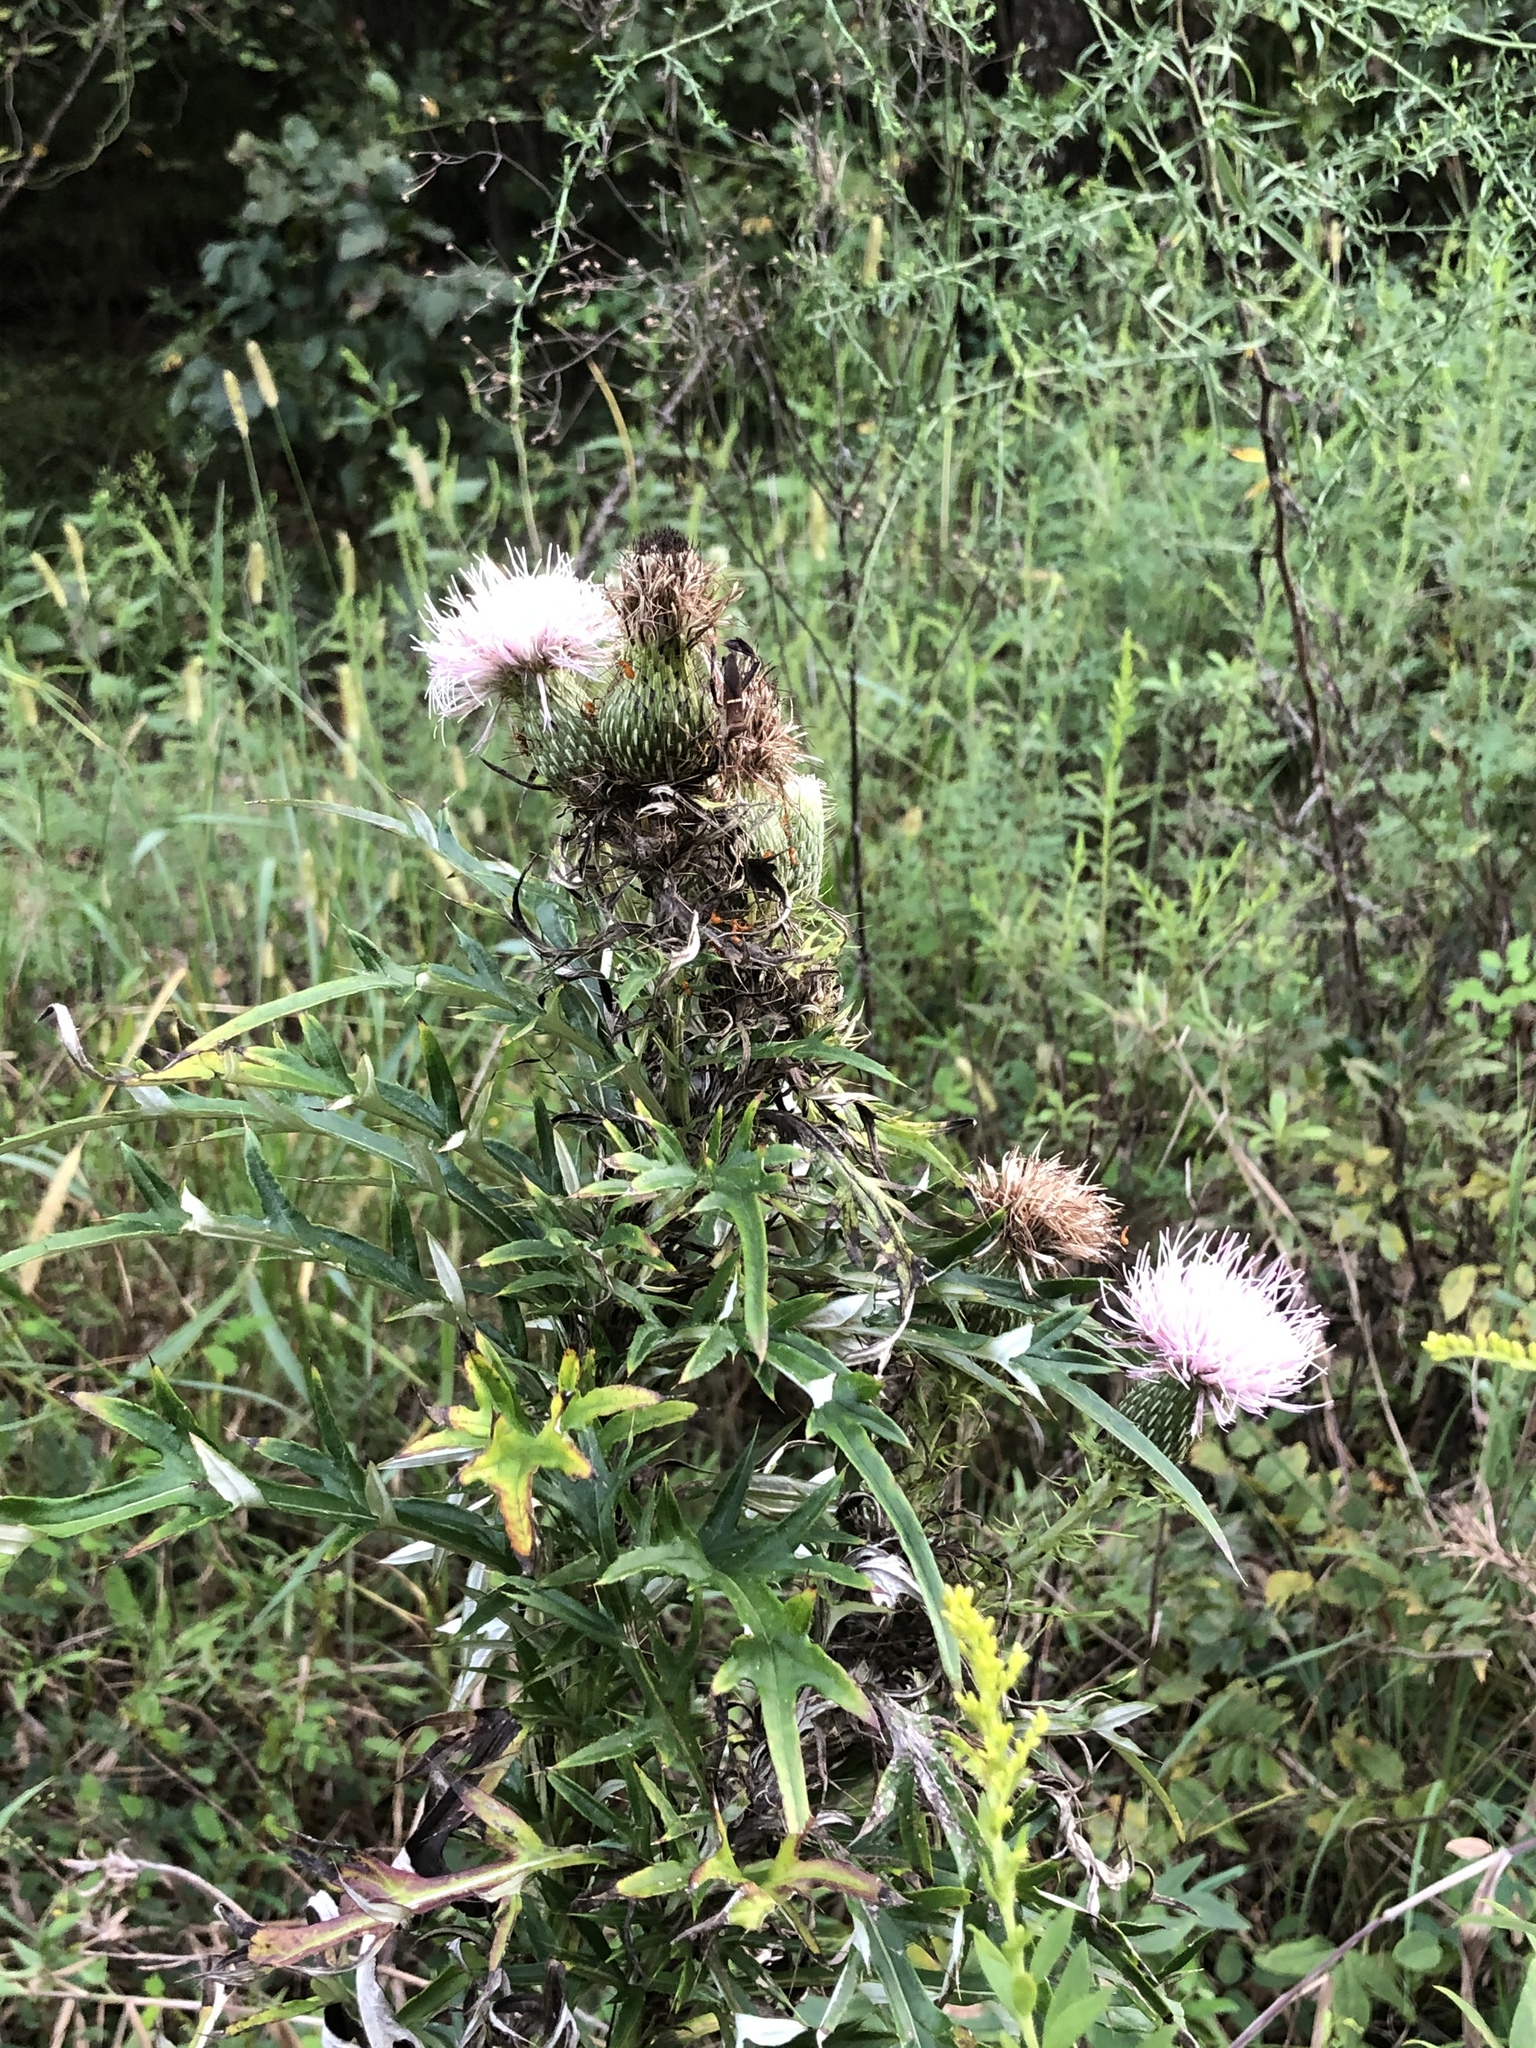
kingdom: Plantae
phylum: Tracheophyta
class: Magnoliopsida
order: Asterales
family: Asteraceae
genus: Cirsium
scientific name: Cirsium discolor
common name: Field thistle
